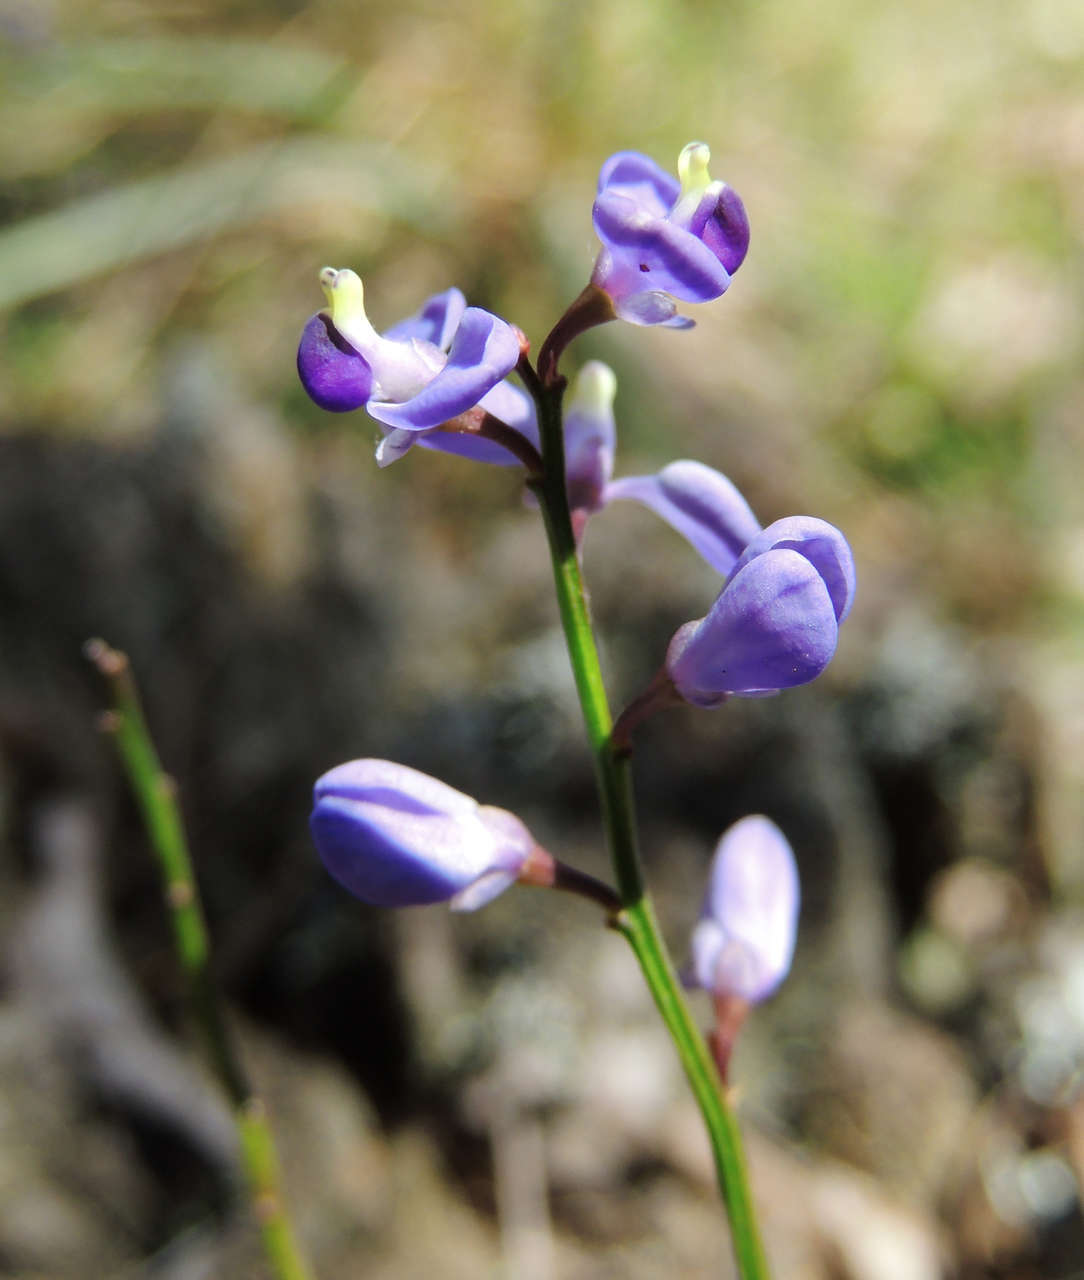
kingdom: Plantae
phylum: Tracheophyta
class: Magnoliopsida
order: Fabales
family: Polygalaceae
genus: Comesperma
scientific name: Comesperma volubile
